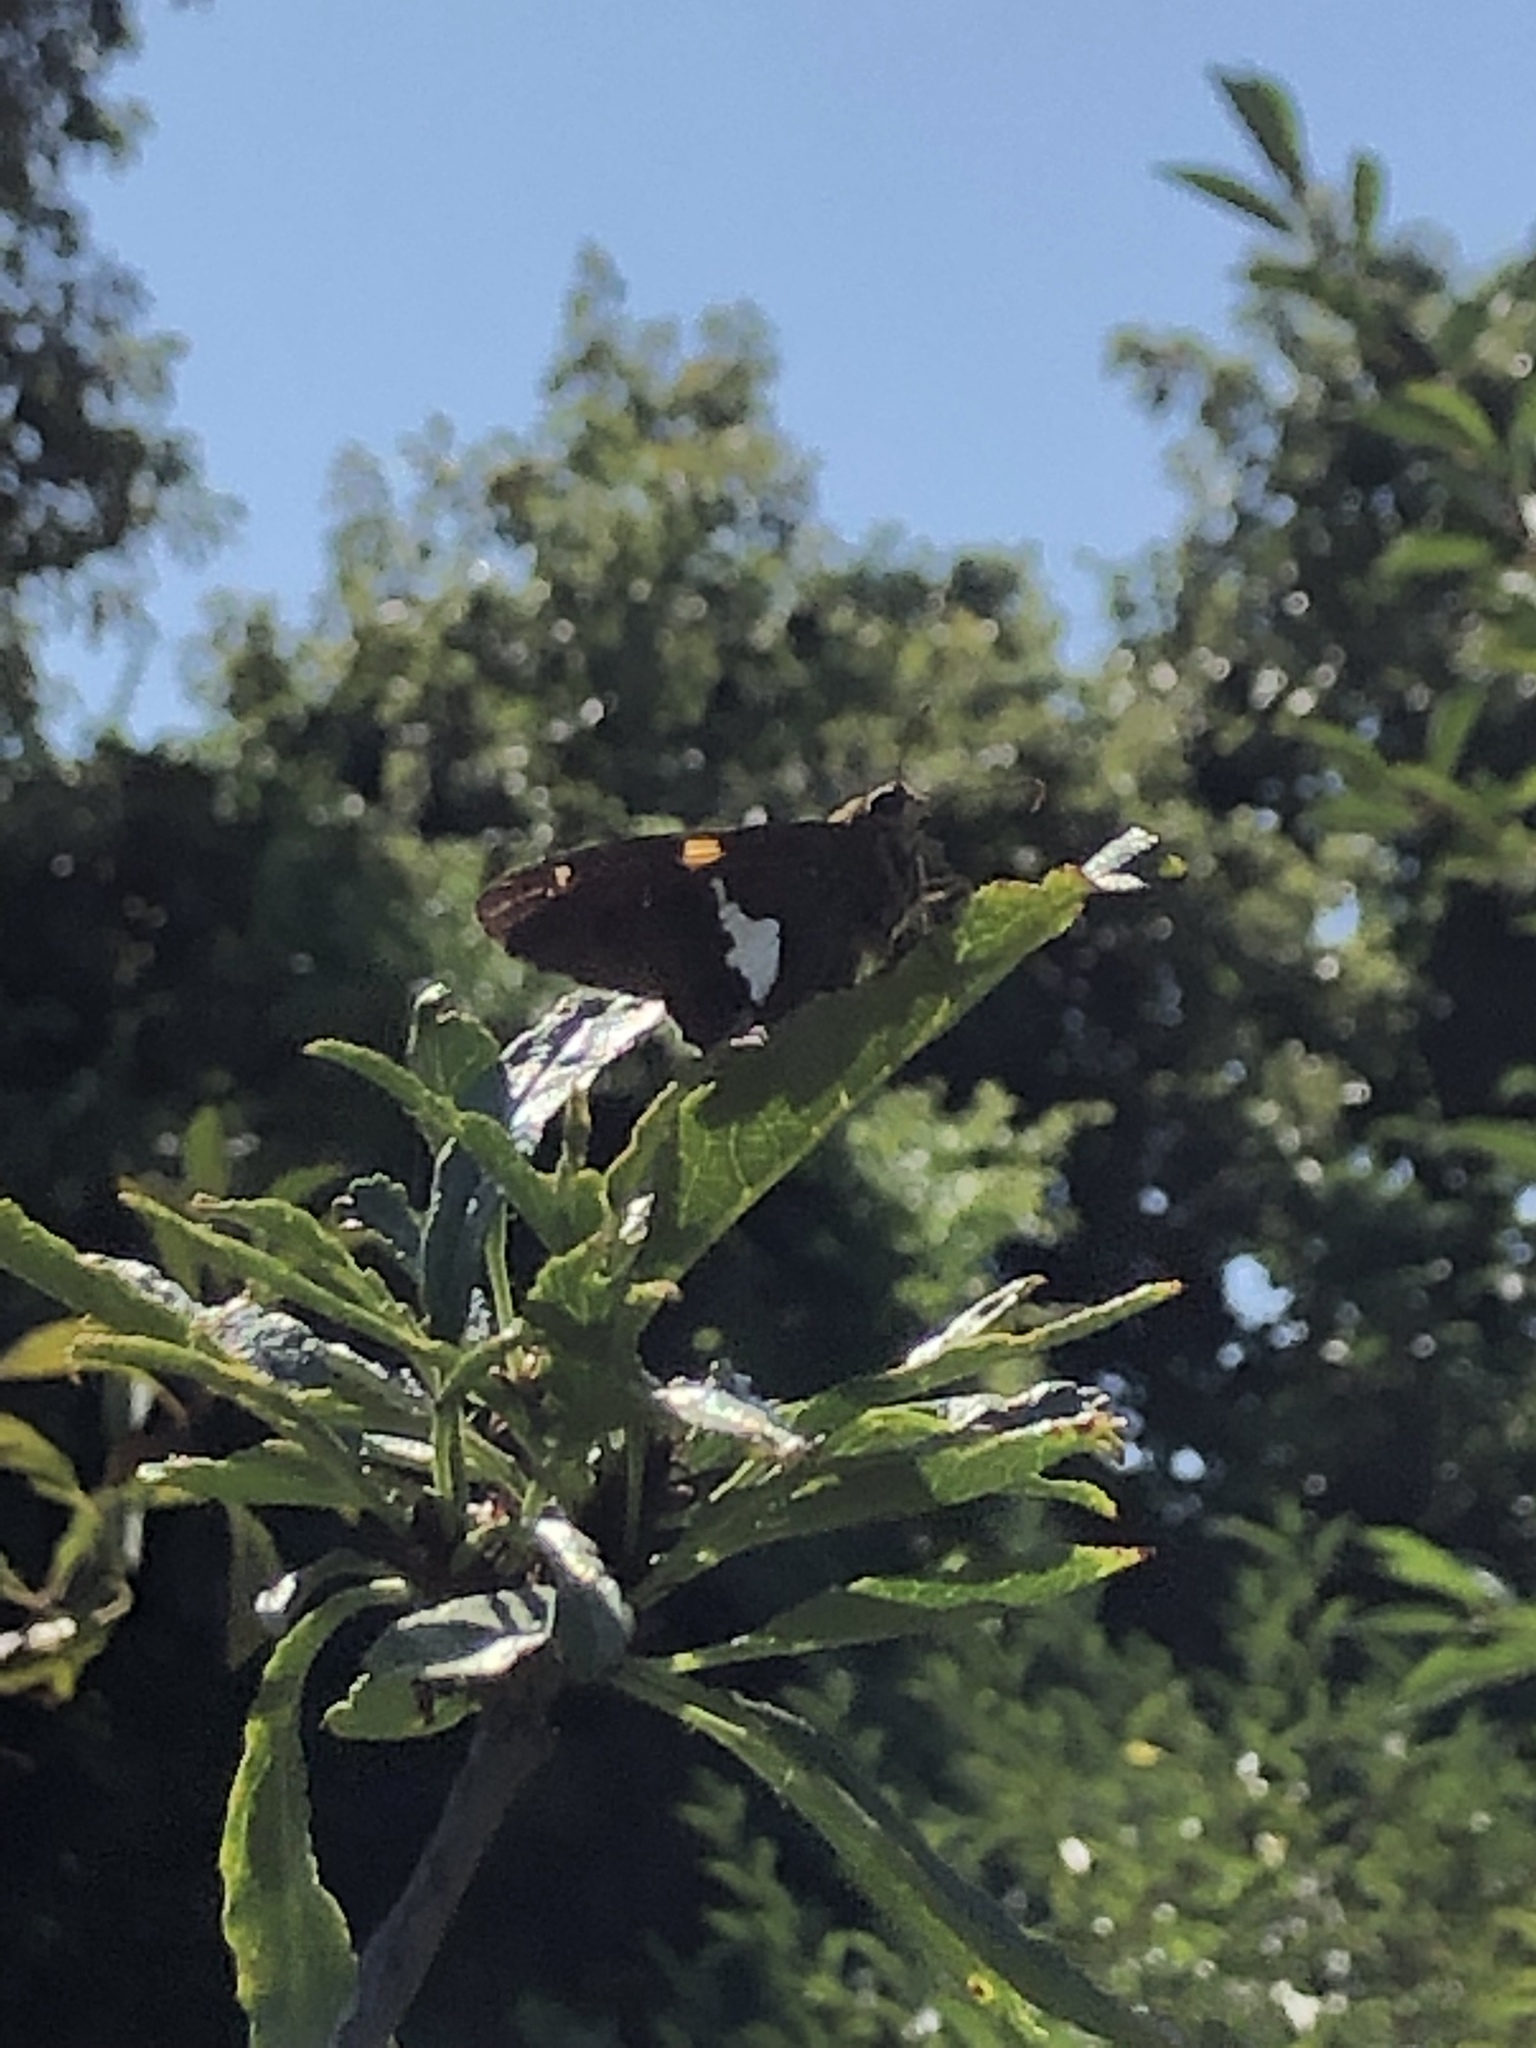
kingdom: Animalia
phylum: Arthropoda
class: Insecta
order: Lepidoptera
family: Hesperiidae
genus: Epargyreus
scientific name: Epargyreus clarus
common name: Silver-spotted skipper
